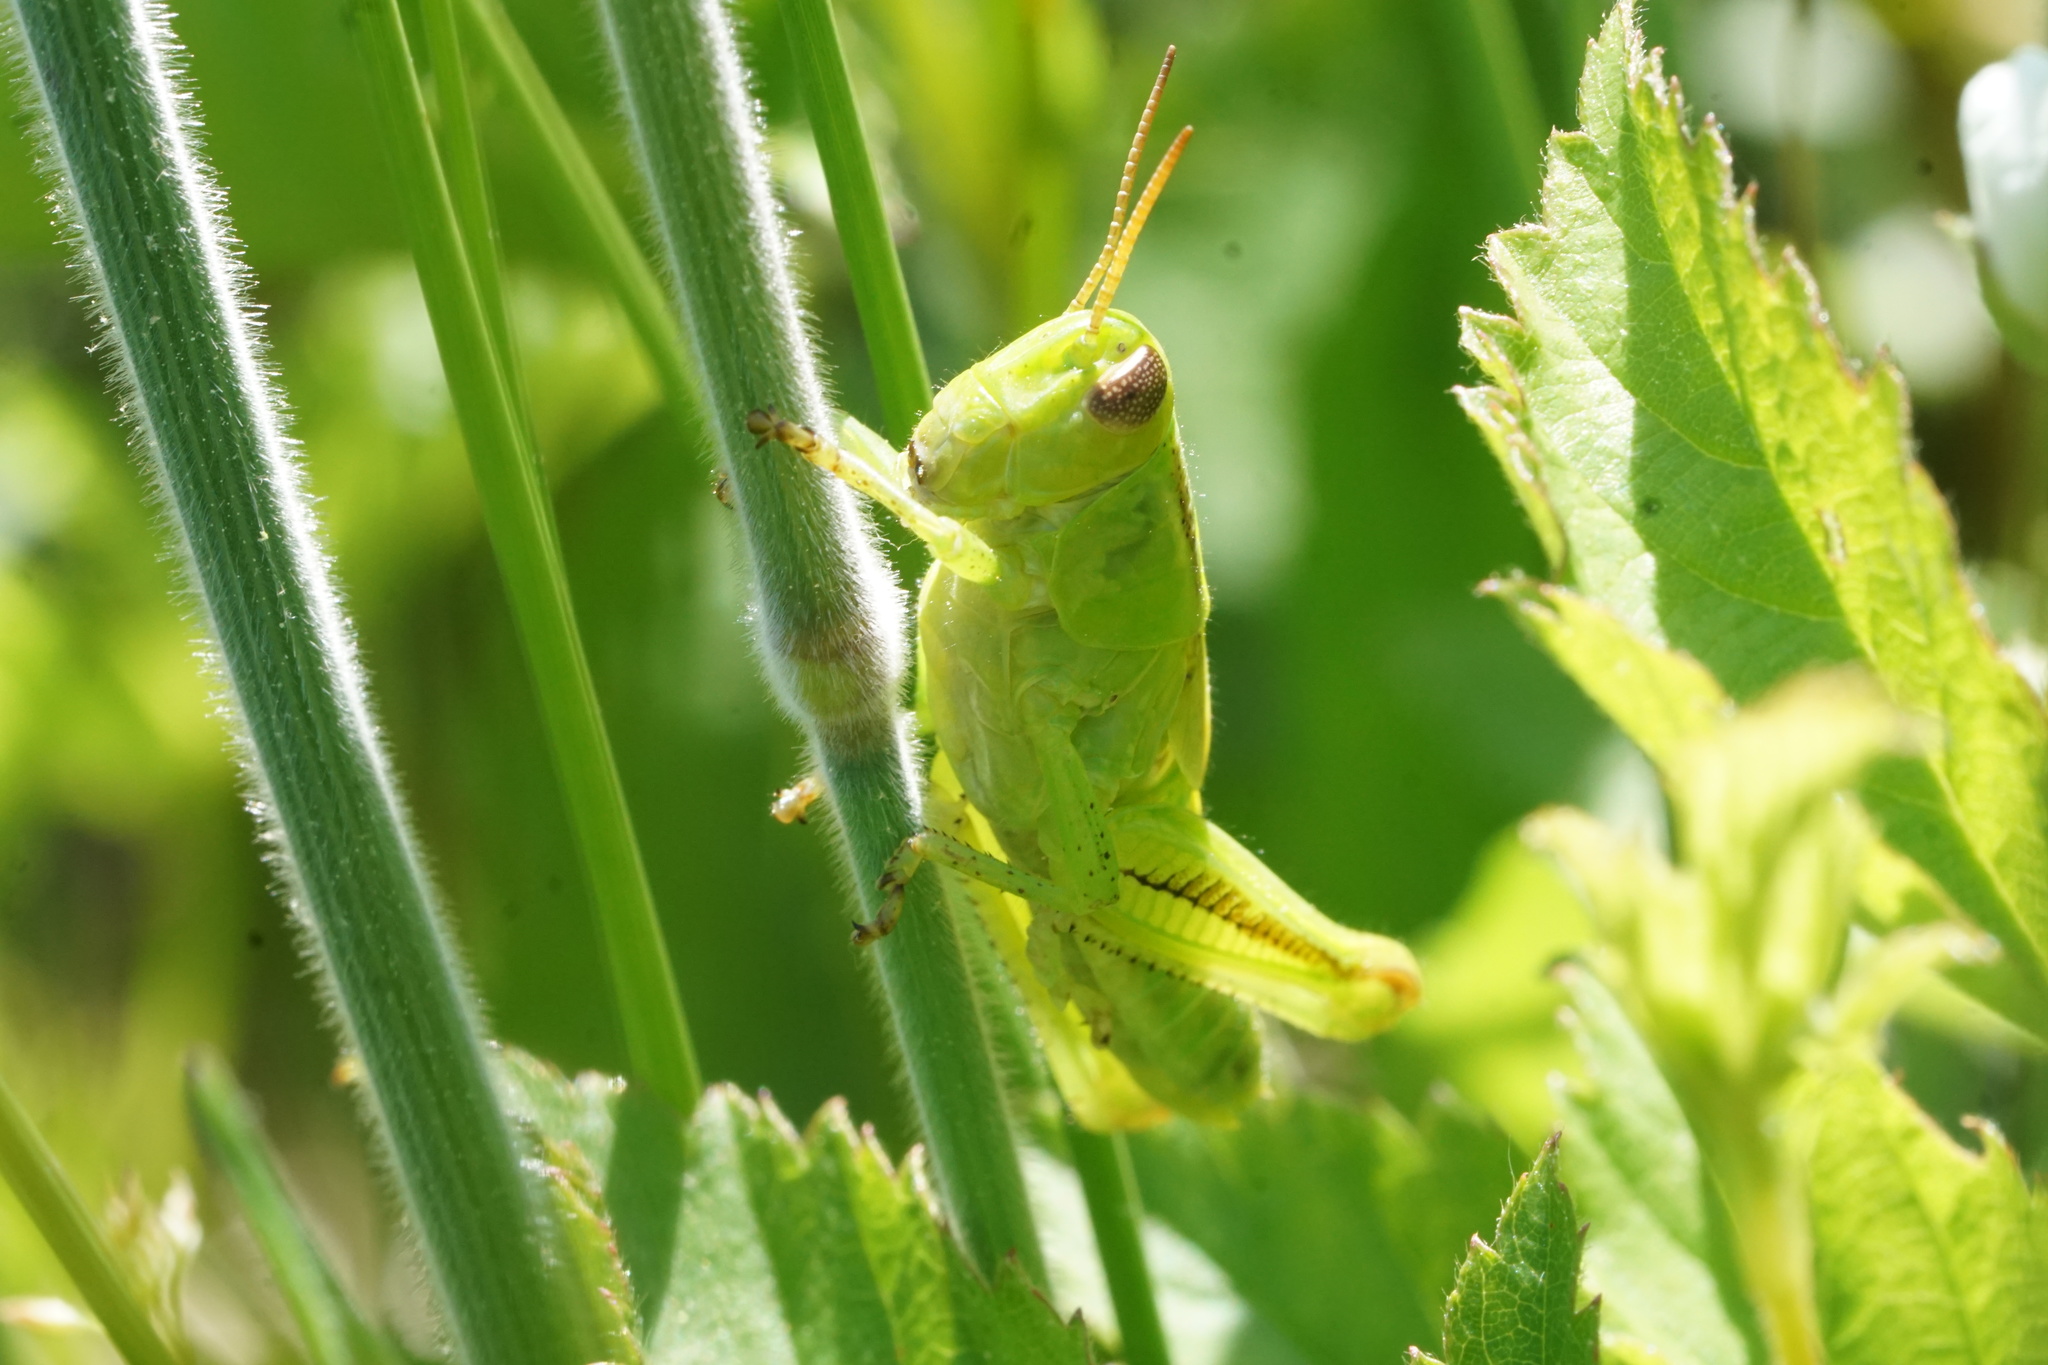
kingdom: Animalia
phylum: Arthropoda
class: Insecta
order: Orthoptera
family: Acrididae
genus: Melanoplus
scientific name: Melanoplus bivittatus
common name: Two-striped grasshopper
